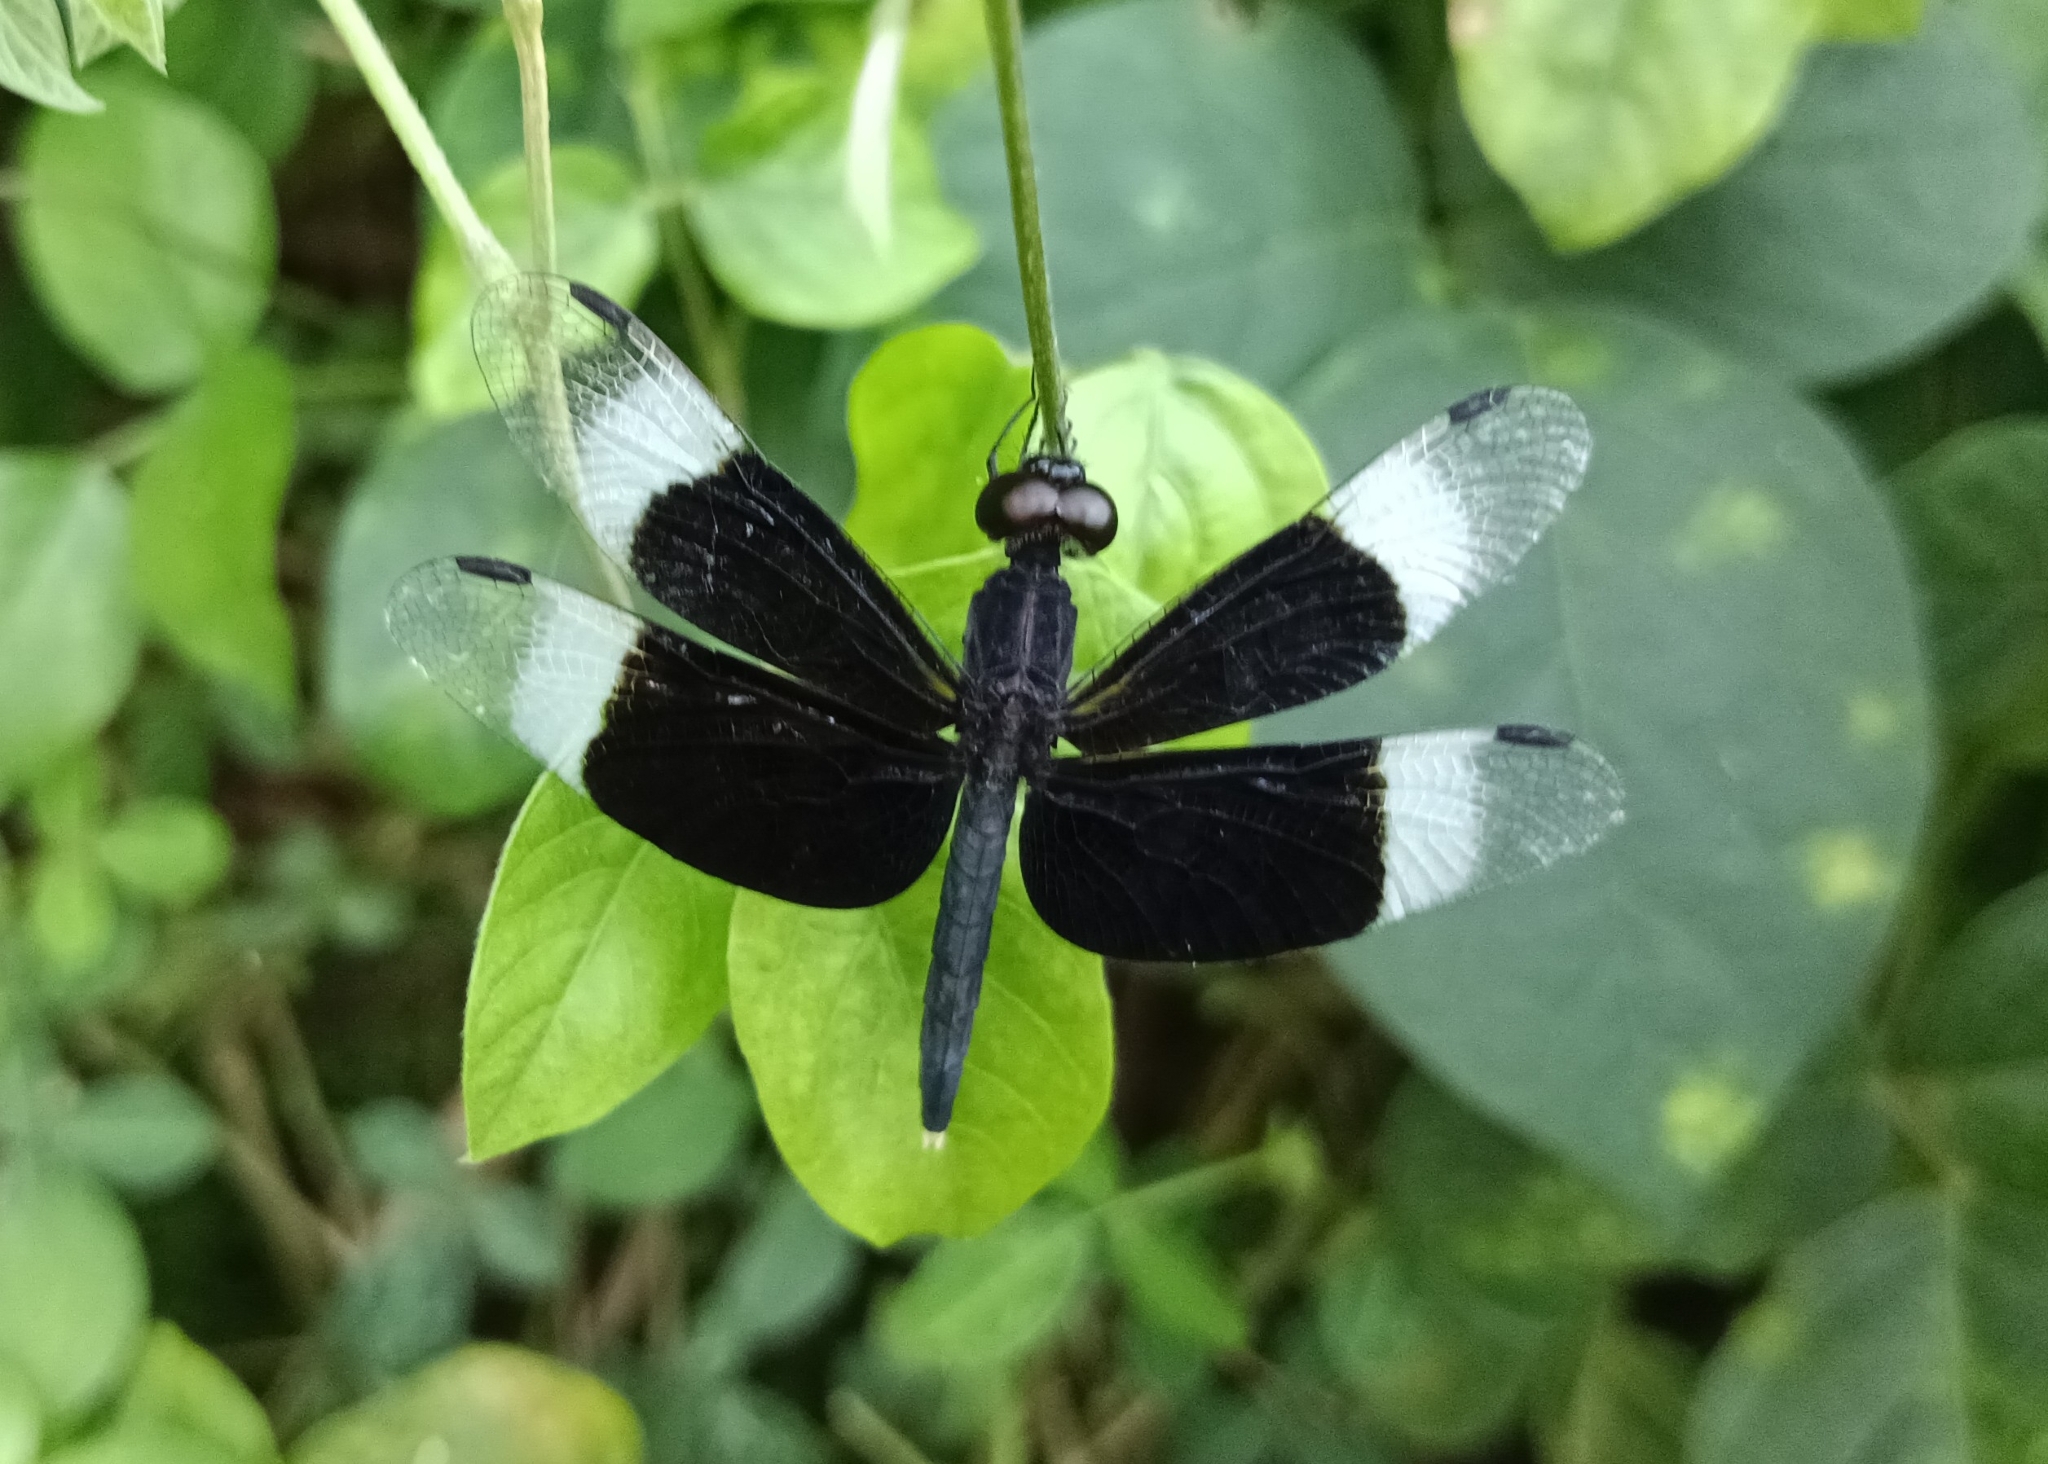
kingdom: Animalia
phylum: Arthropoda
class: Insecta
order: Odonata
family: Libellulidae
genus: Neurothemis
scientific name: Neurothemis tullia
